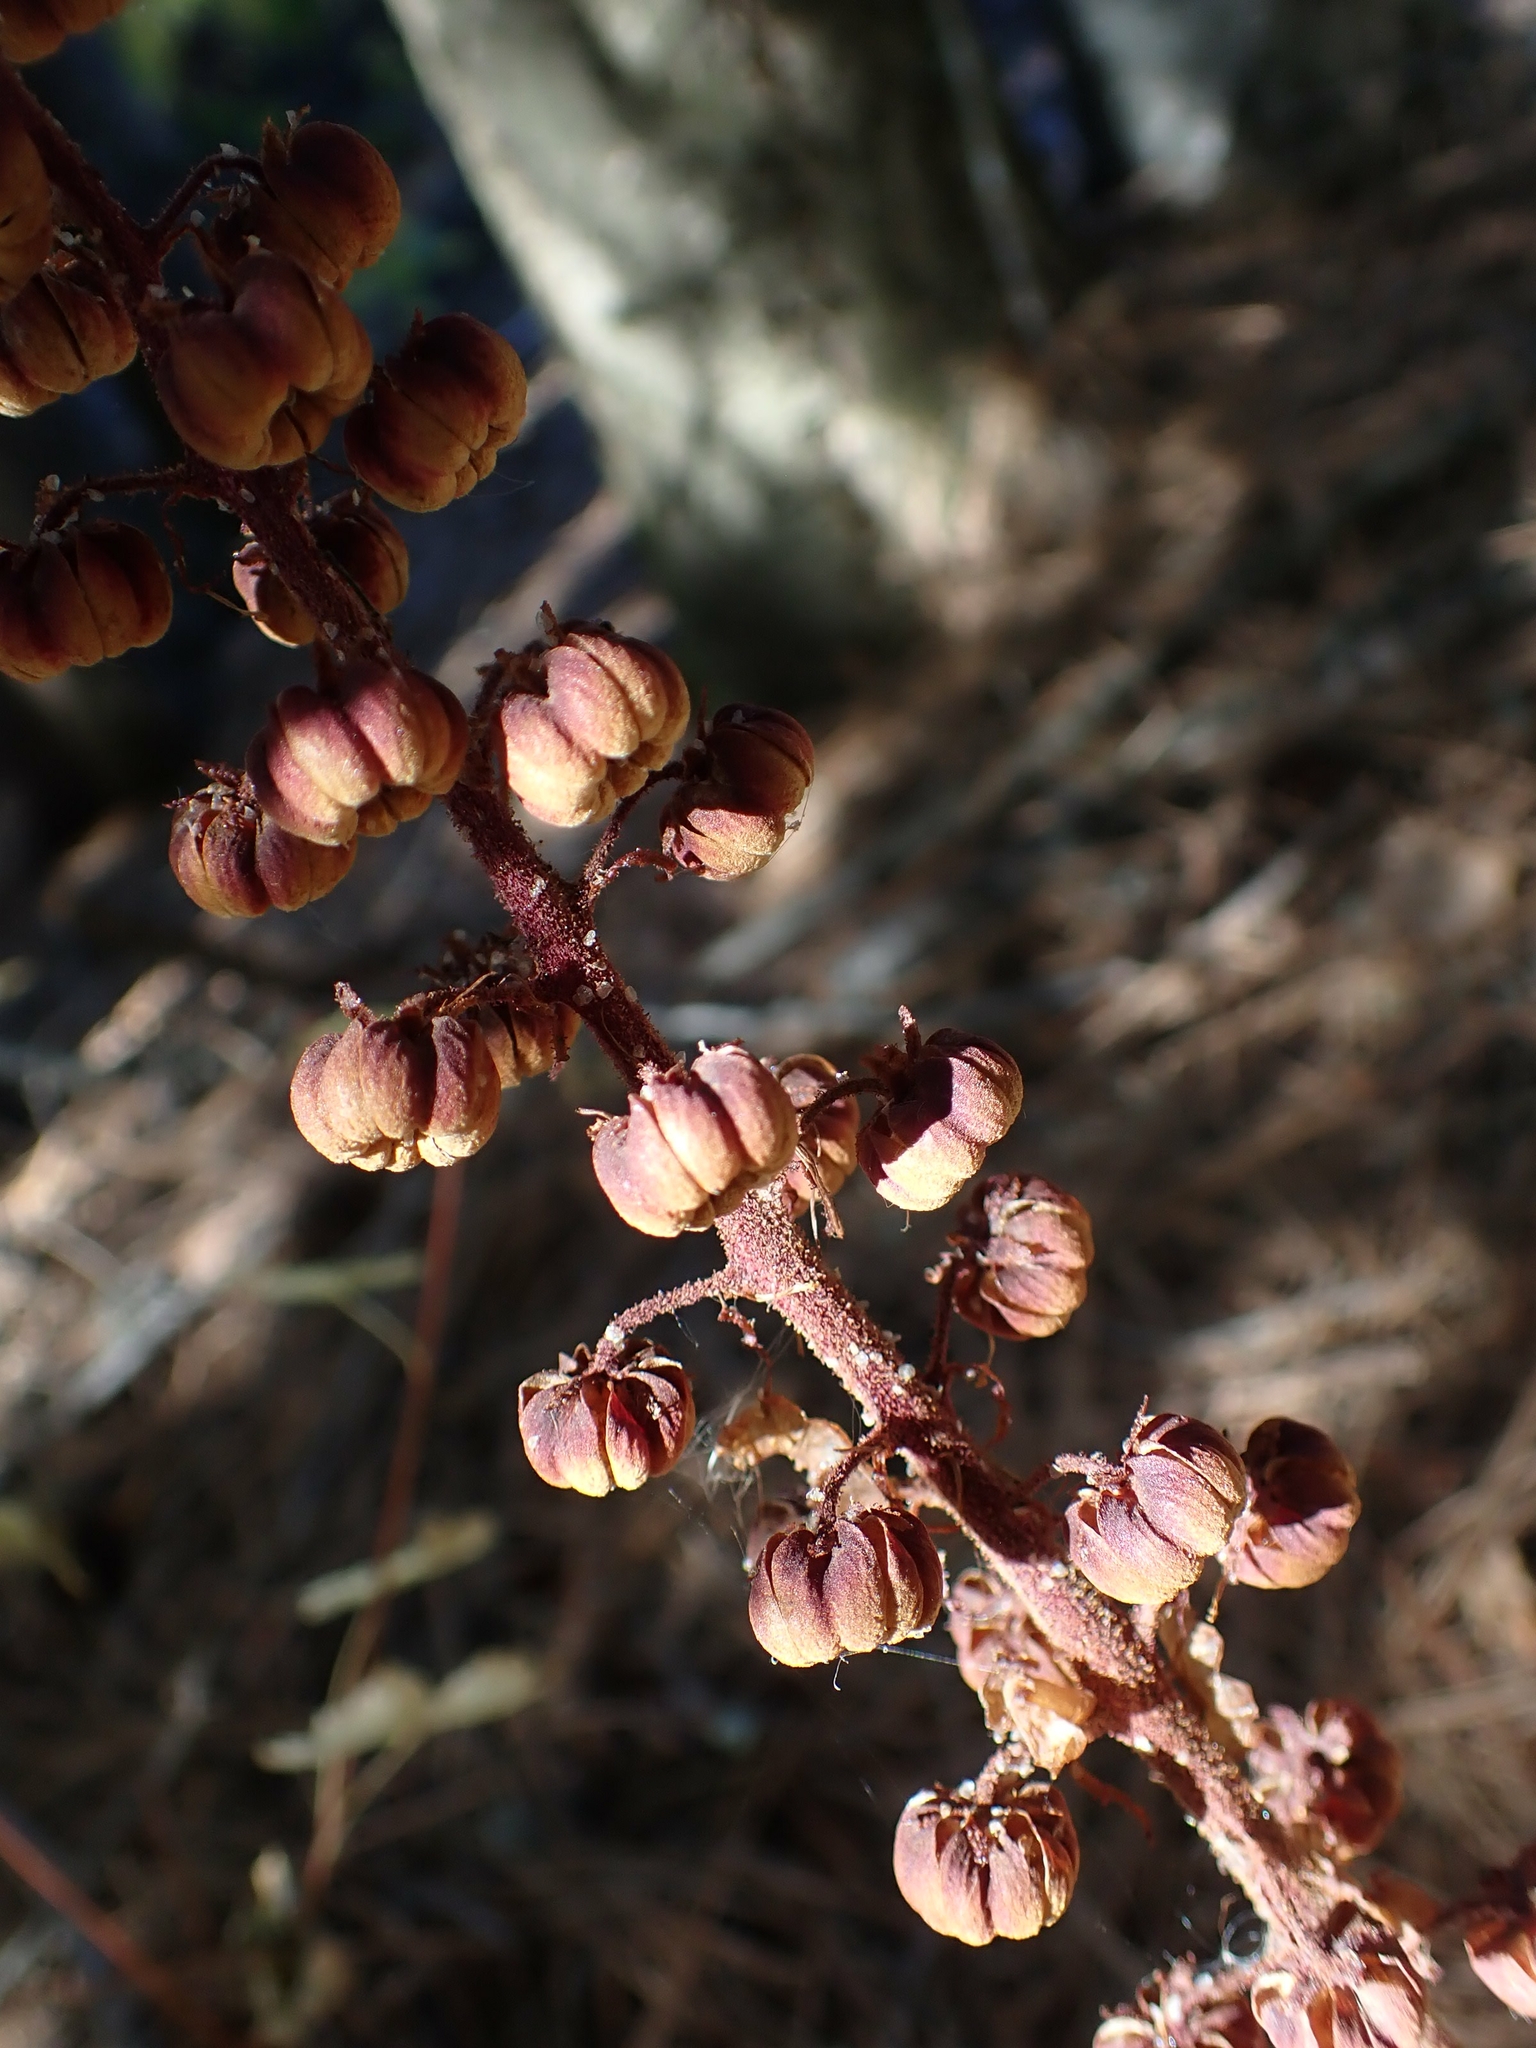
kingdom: Plantae
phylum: Tracheophyta
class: Magnoliopsida
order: Ericales
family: Ericaceae
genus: Pterospora
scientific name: Pterospora andromedea
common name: Giant bird's-nest
